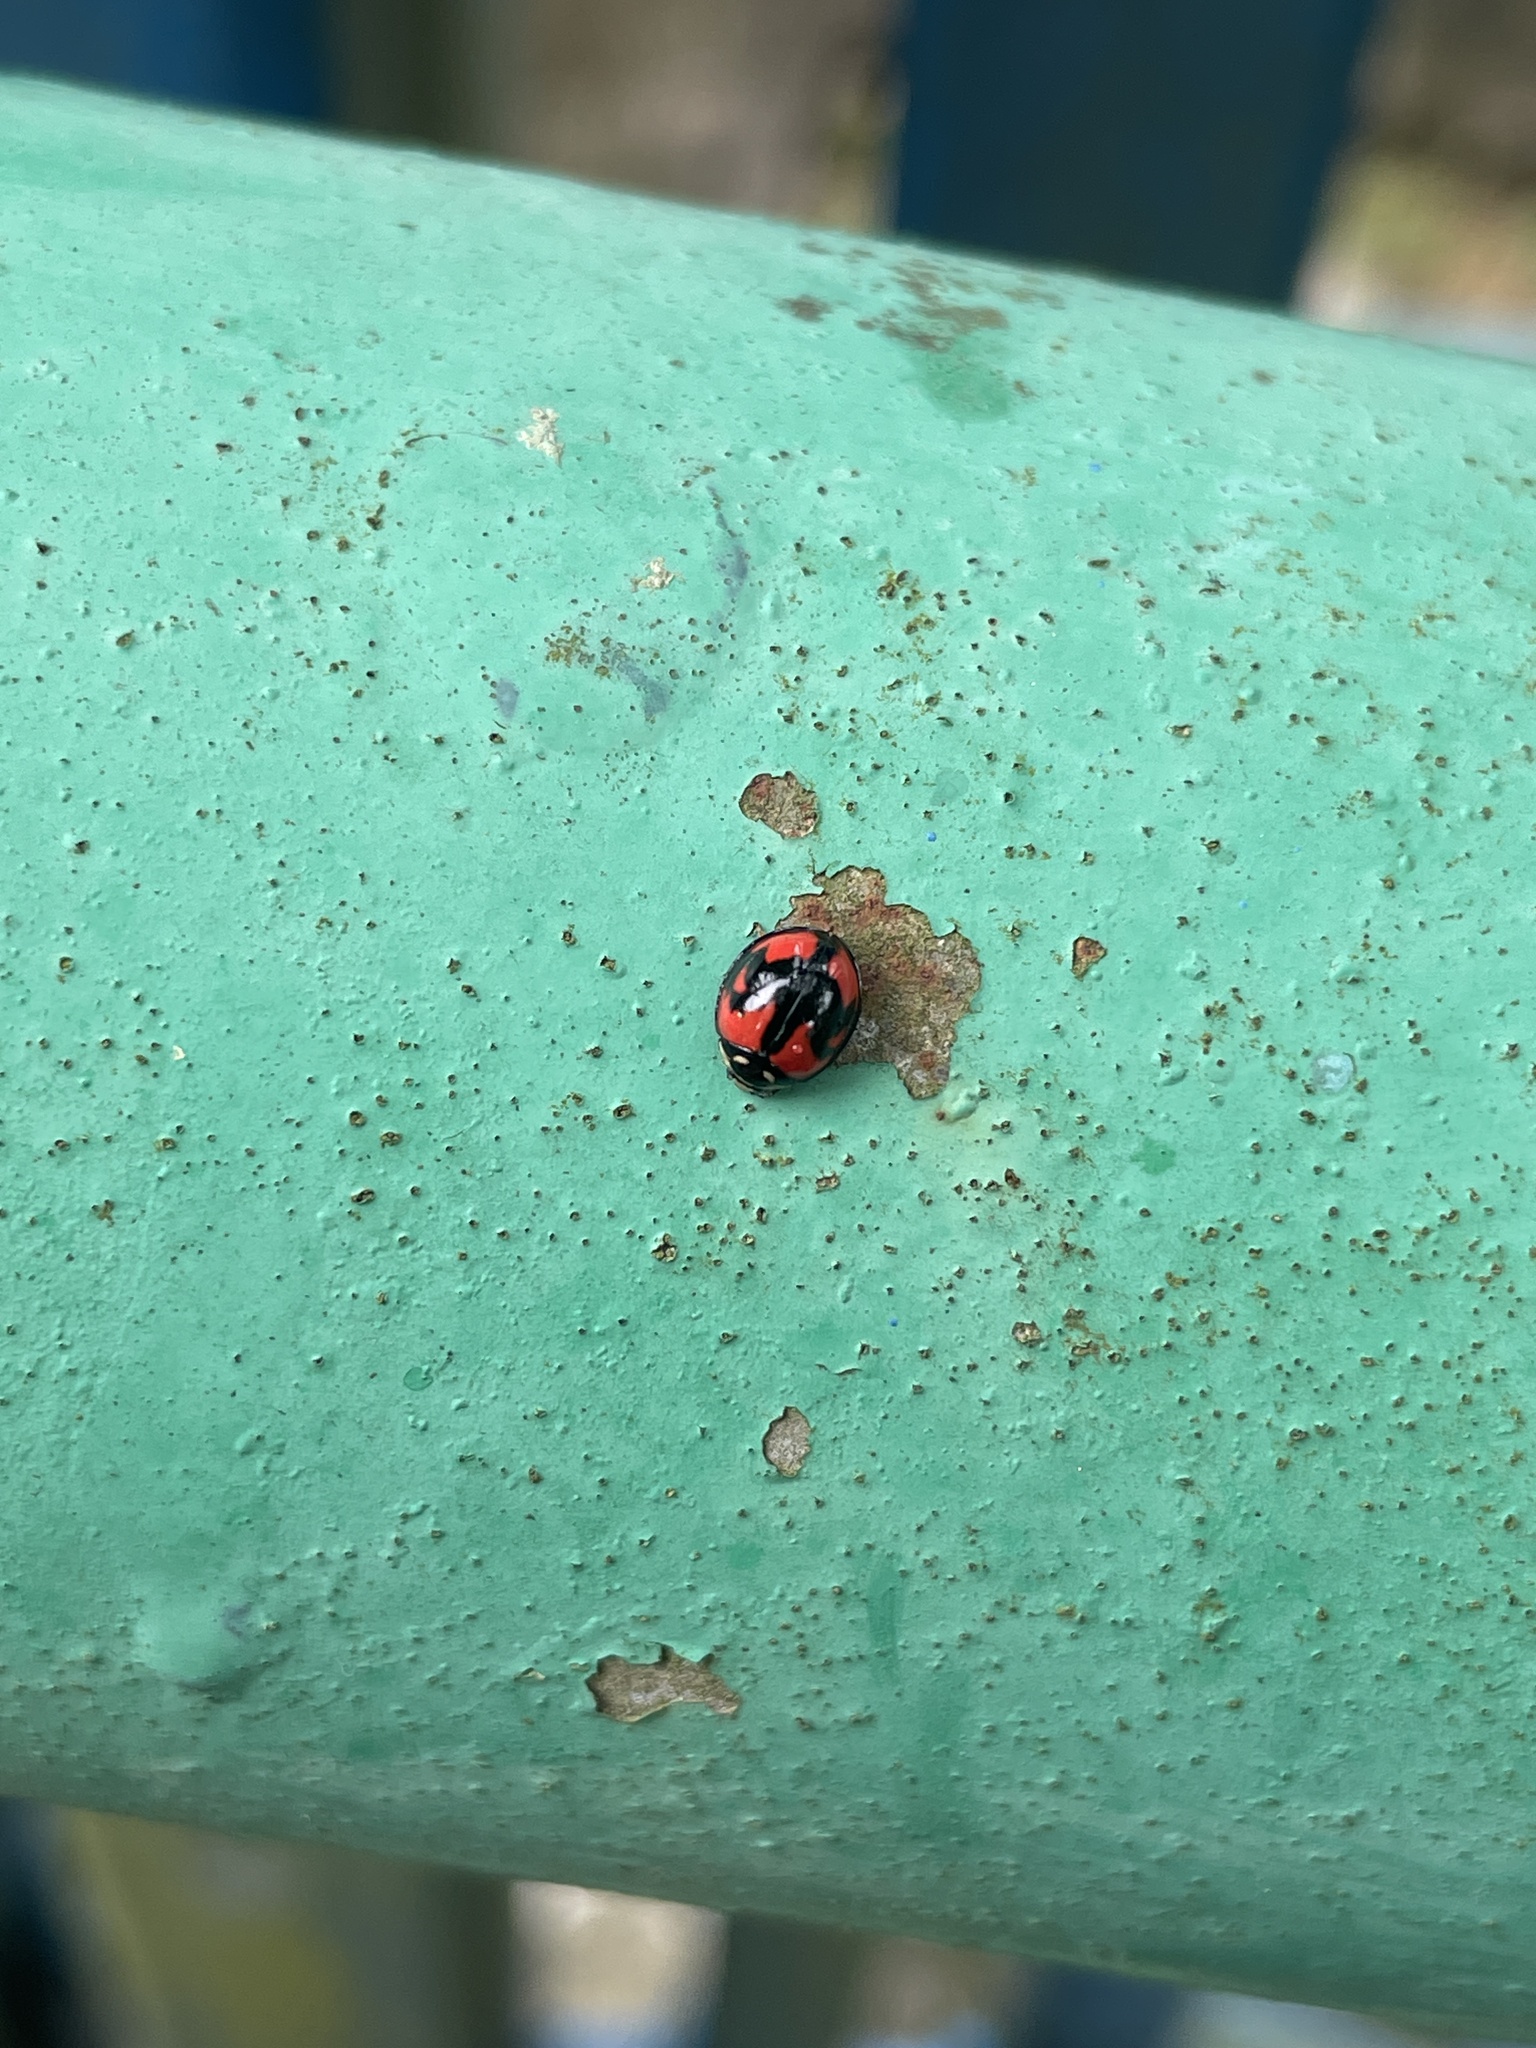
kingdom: Animalia
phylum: Arthropoda
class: Insecta
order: Coleoptera
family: Coccinellidae
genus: Cheilomenes
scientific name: Cheilomenes sexmaculata
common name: Ladybird beetle
